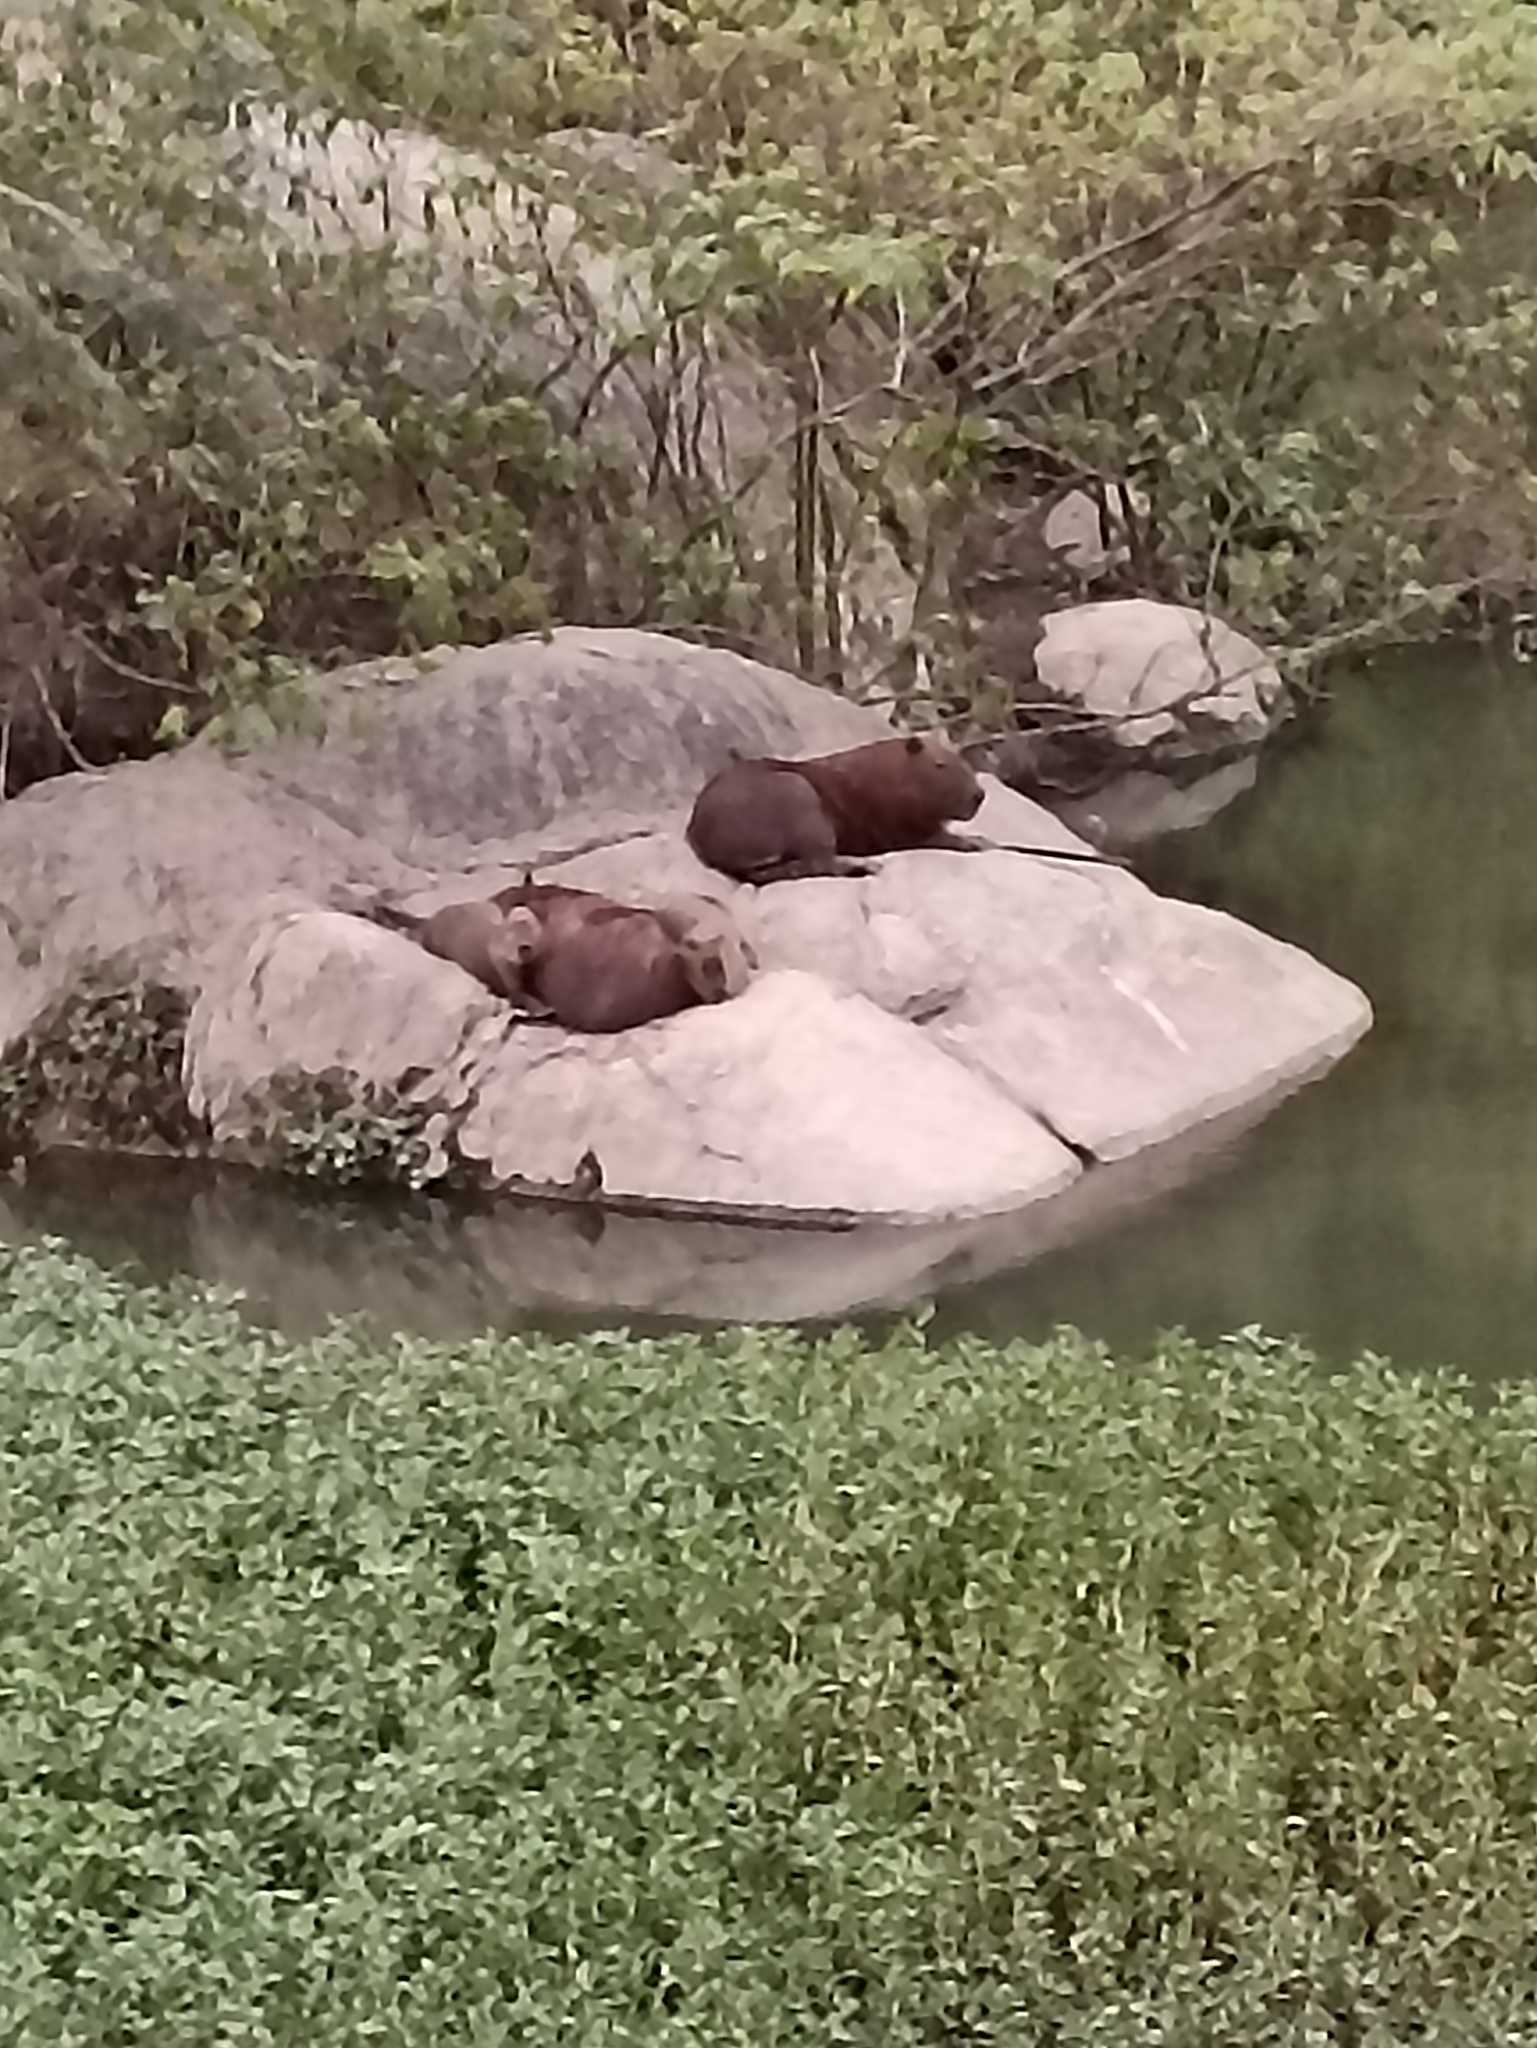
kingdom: Animalia
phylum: Chordata
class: Mammalia
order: Rodentia
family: Caviidae
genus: Hydrochoerus
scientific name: Hydrochoerus hydrochaeris
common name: Capybara
